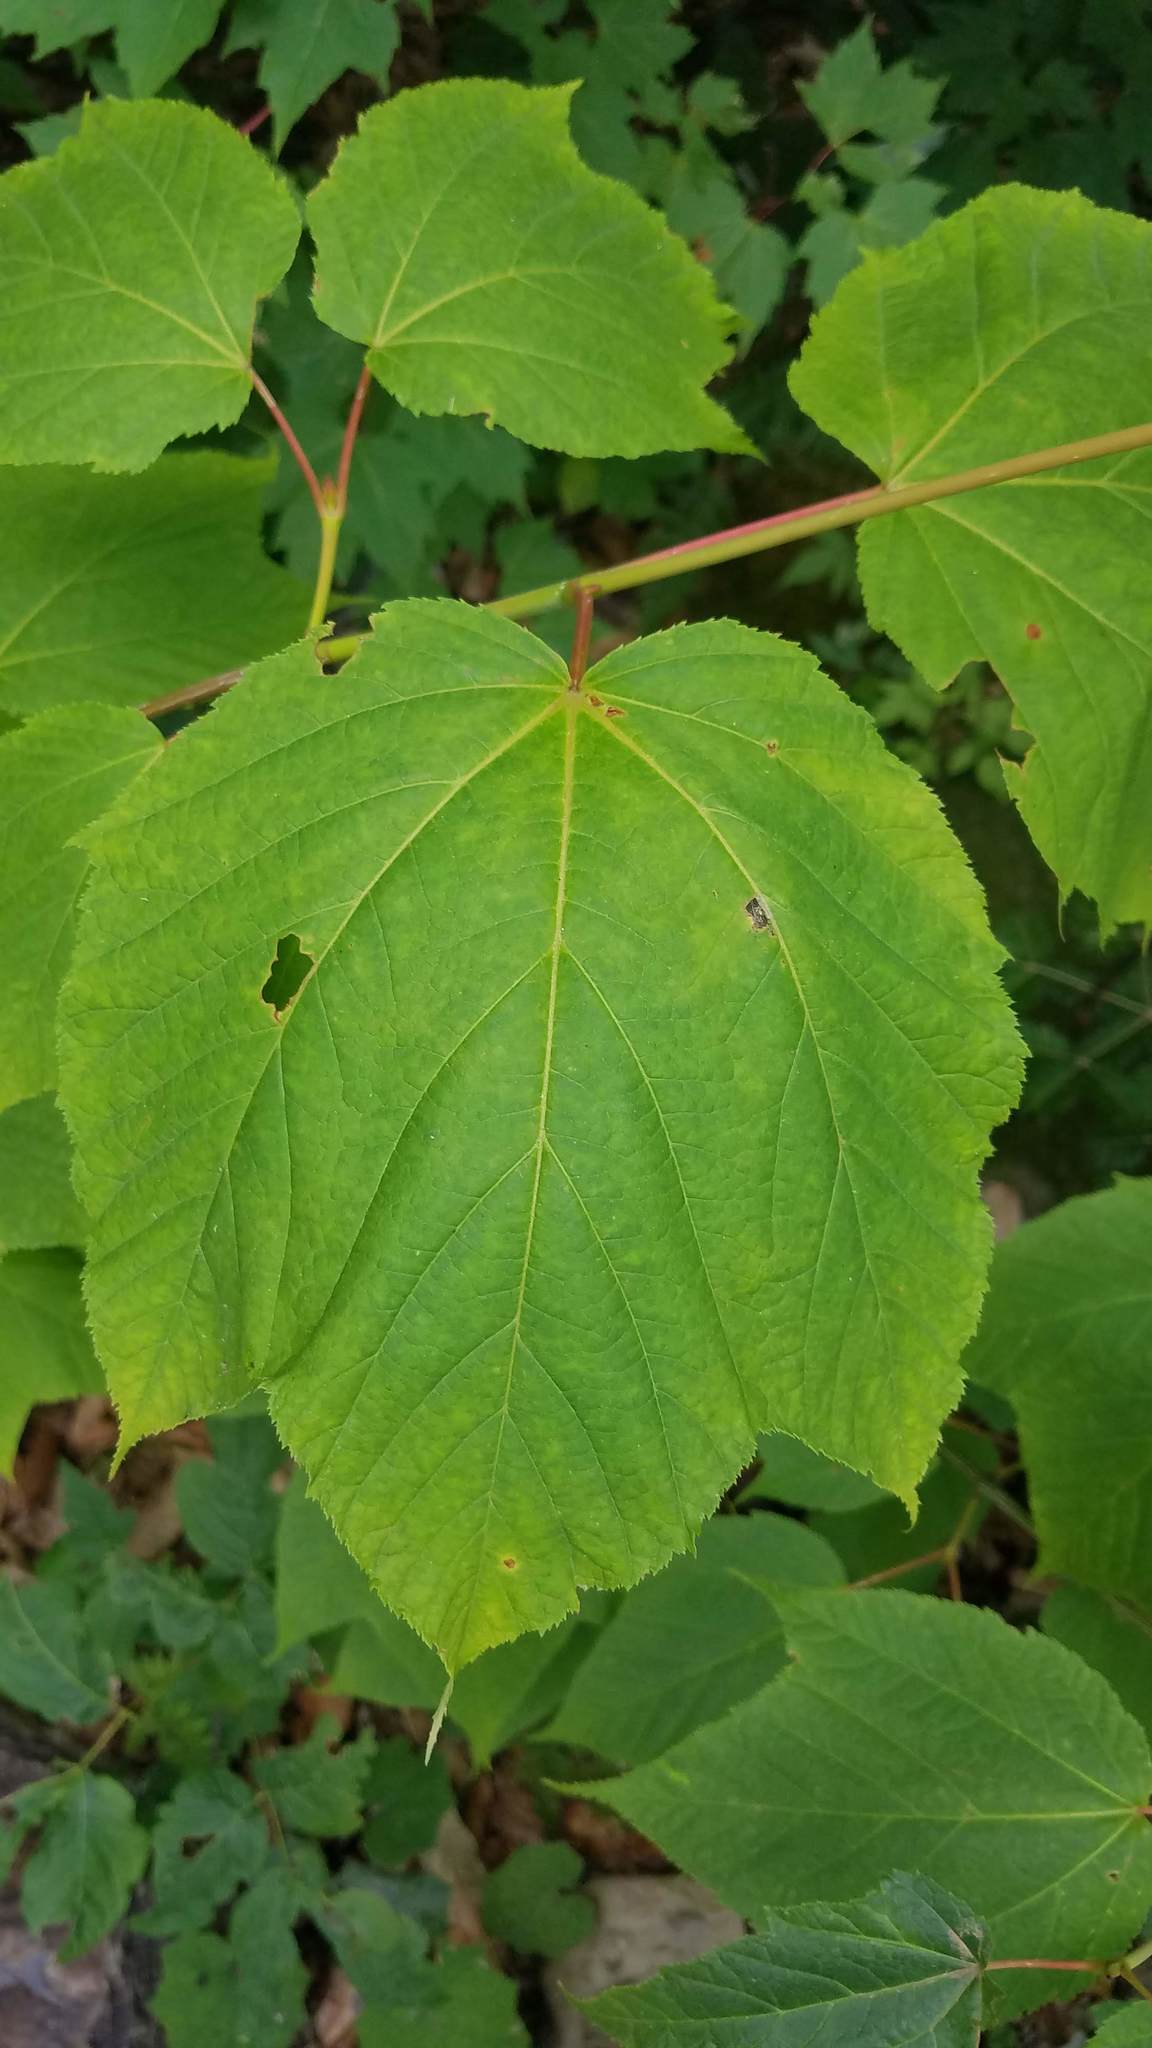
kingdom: Plantae
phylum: Tracheophyta
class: Magnoliopsida
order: Sapindales
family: Sapindaceae
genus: Acer
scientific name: Acer pensylvanicum
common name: Moosewood
